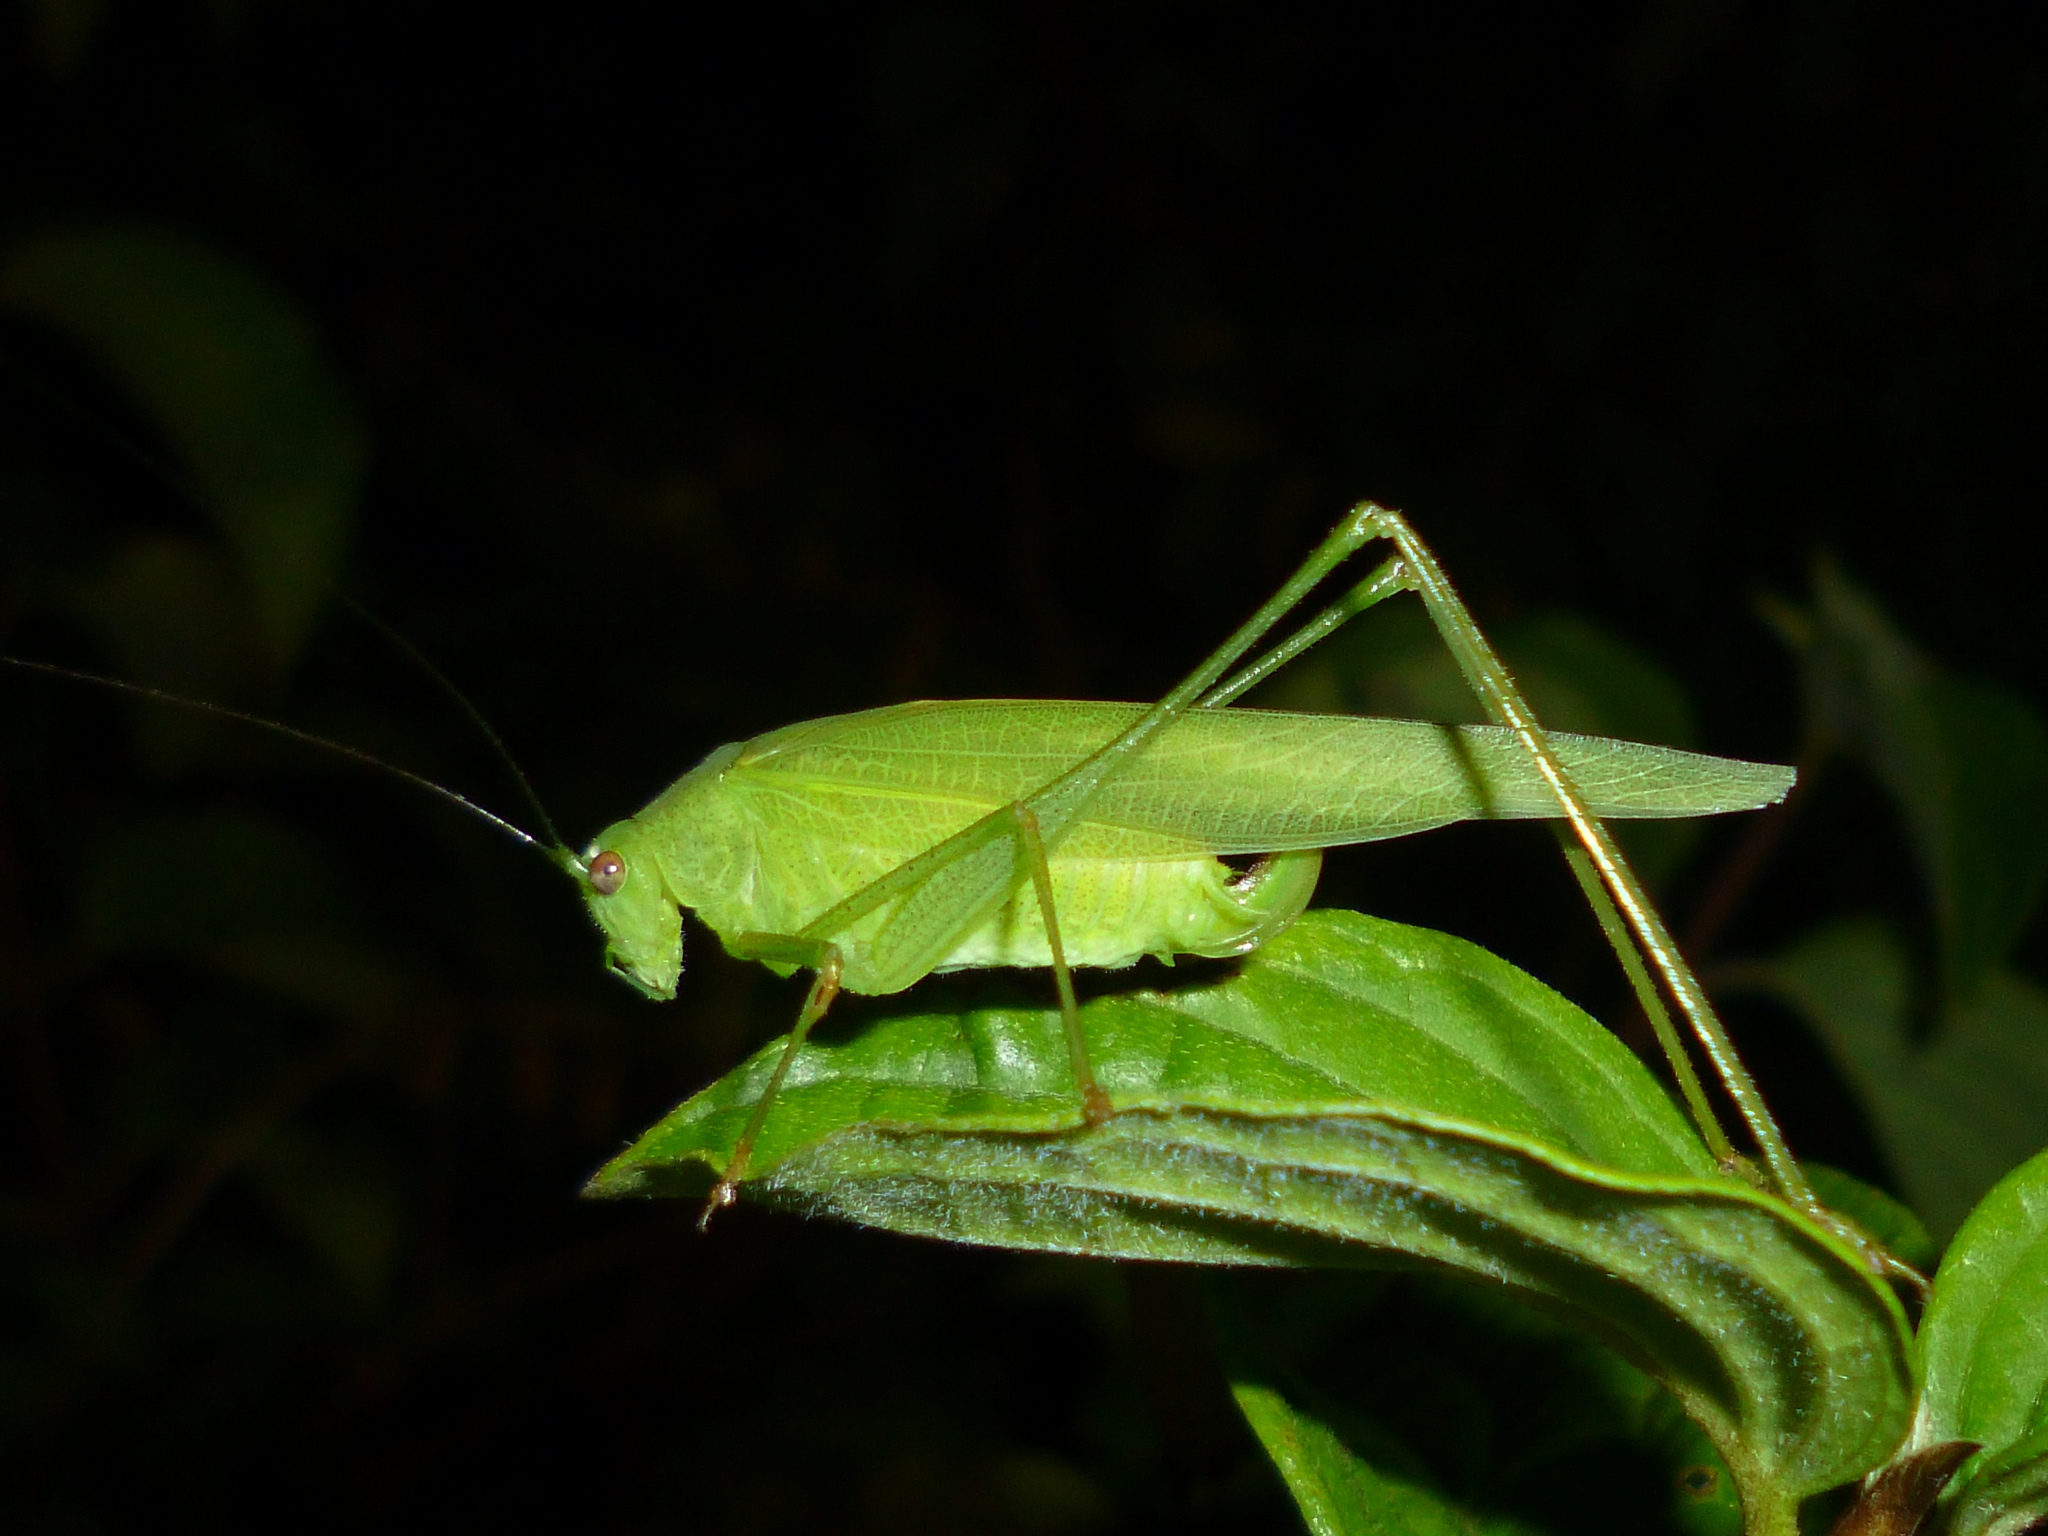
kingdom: Animalia
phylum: Arthropoda
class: Insecta
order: Orthoptera
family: Tettigoniidae
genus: Phaneroptera
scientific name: Phaneroptera nana
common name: Southern sickle bush-cricket
